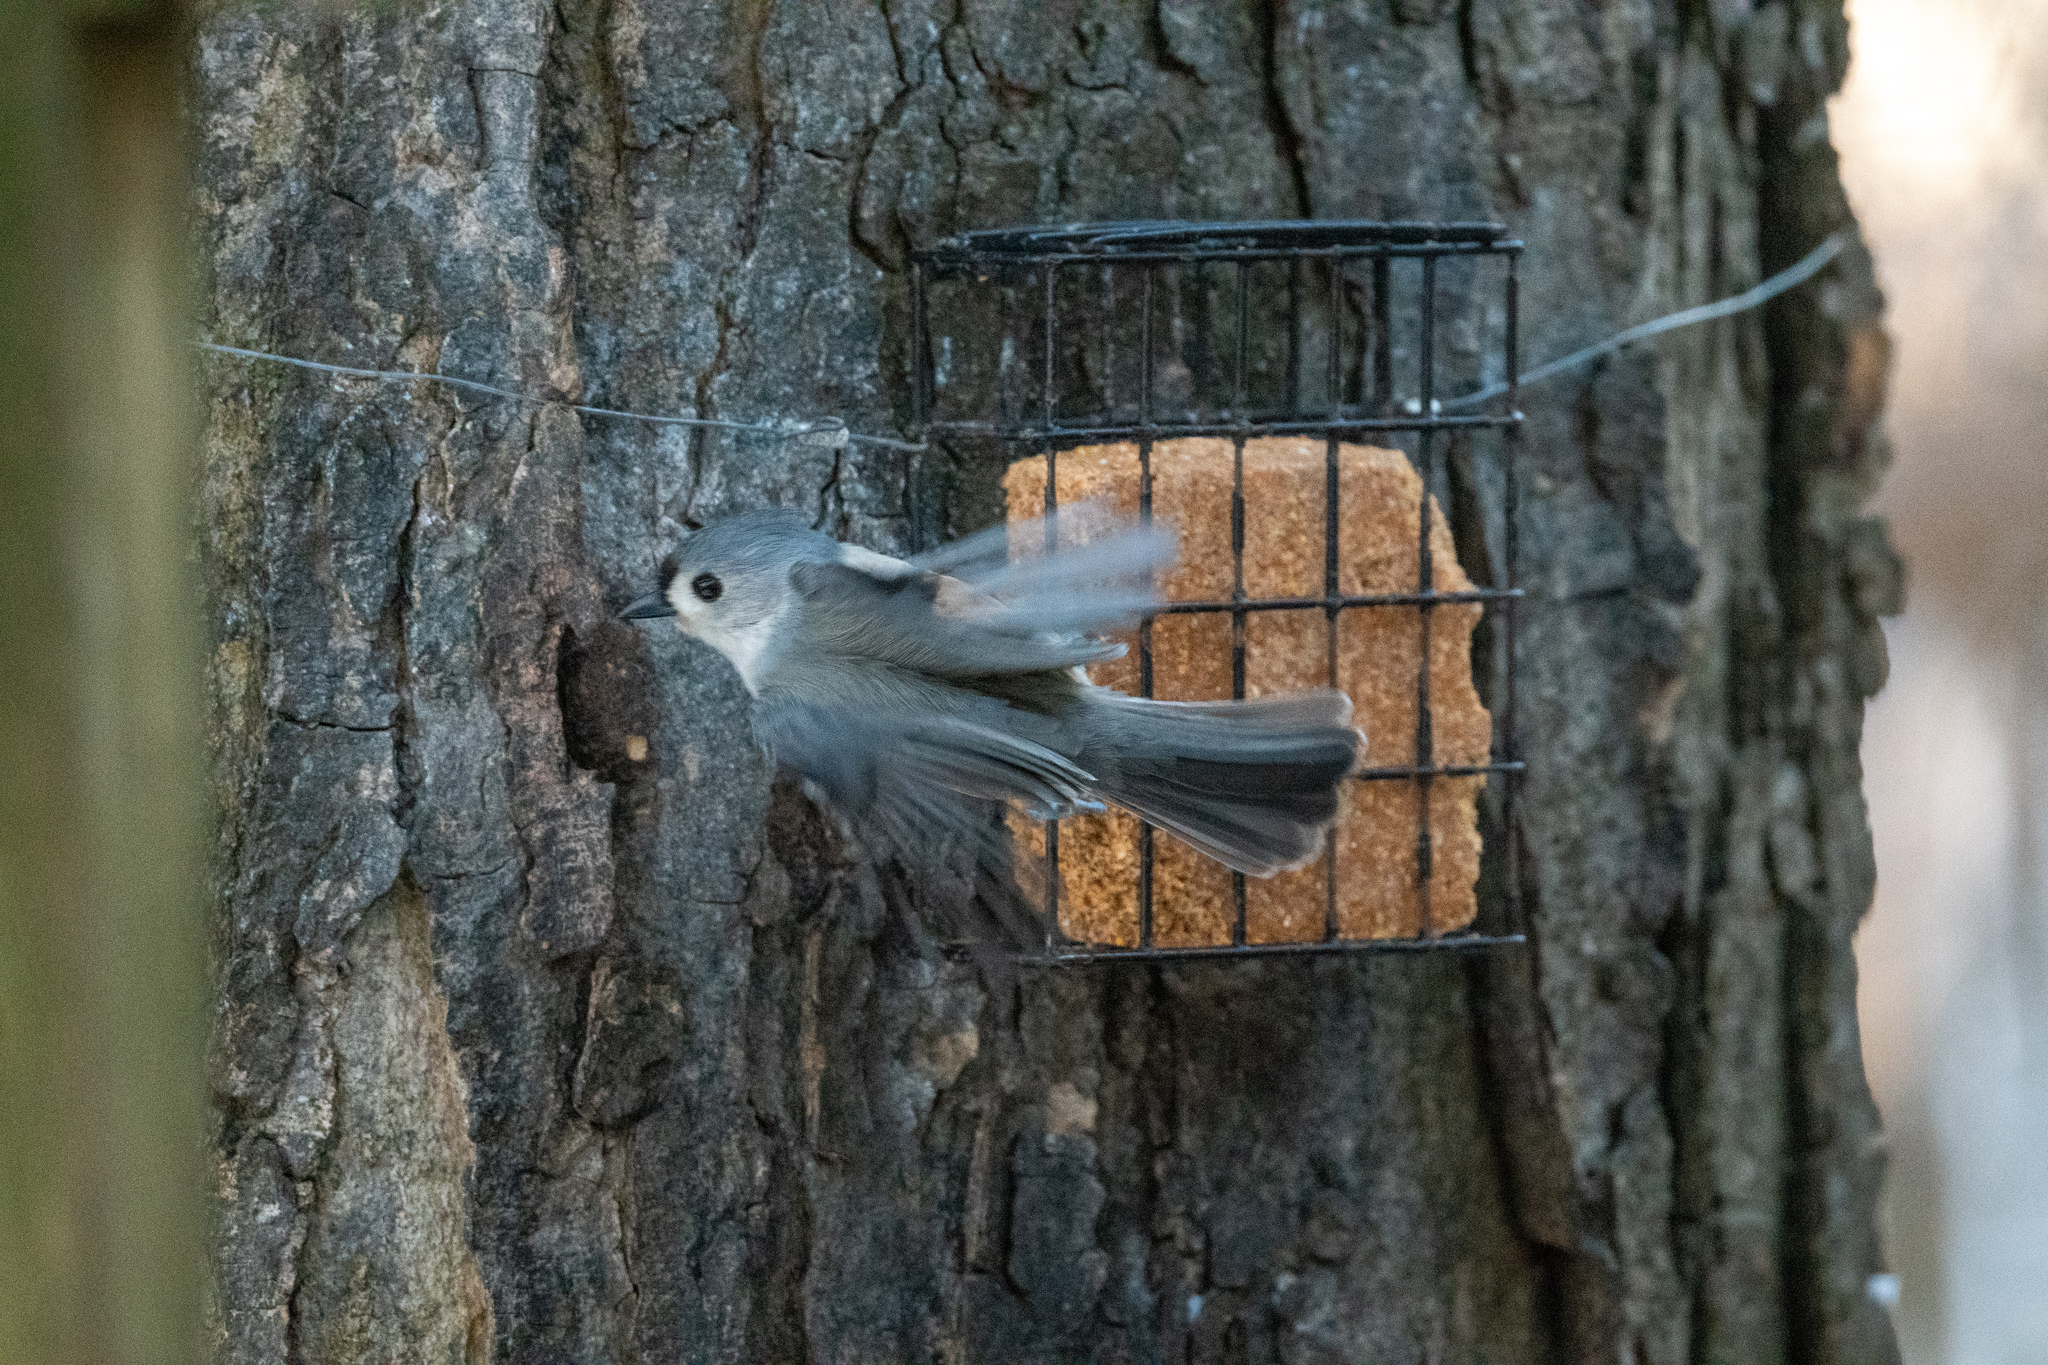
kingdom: Animalia
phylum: Chordata
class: Aves
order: Passeriformes
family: Paridae
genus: Baeolophus
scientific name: Baeolophus bicolor
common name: Tufted titmouse
